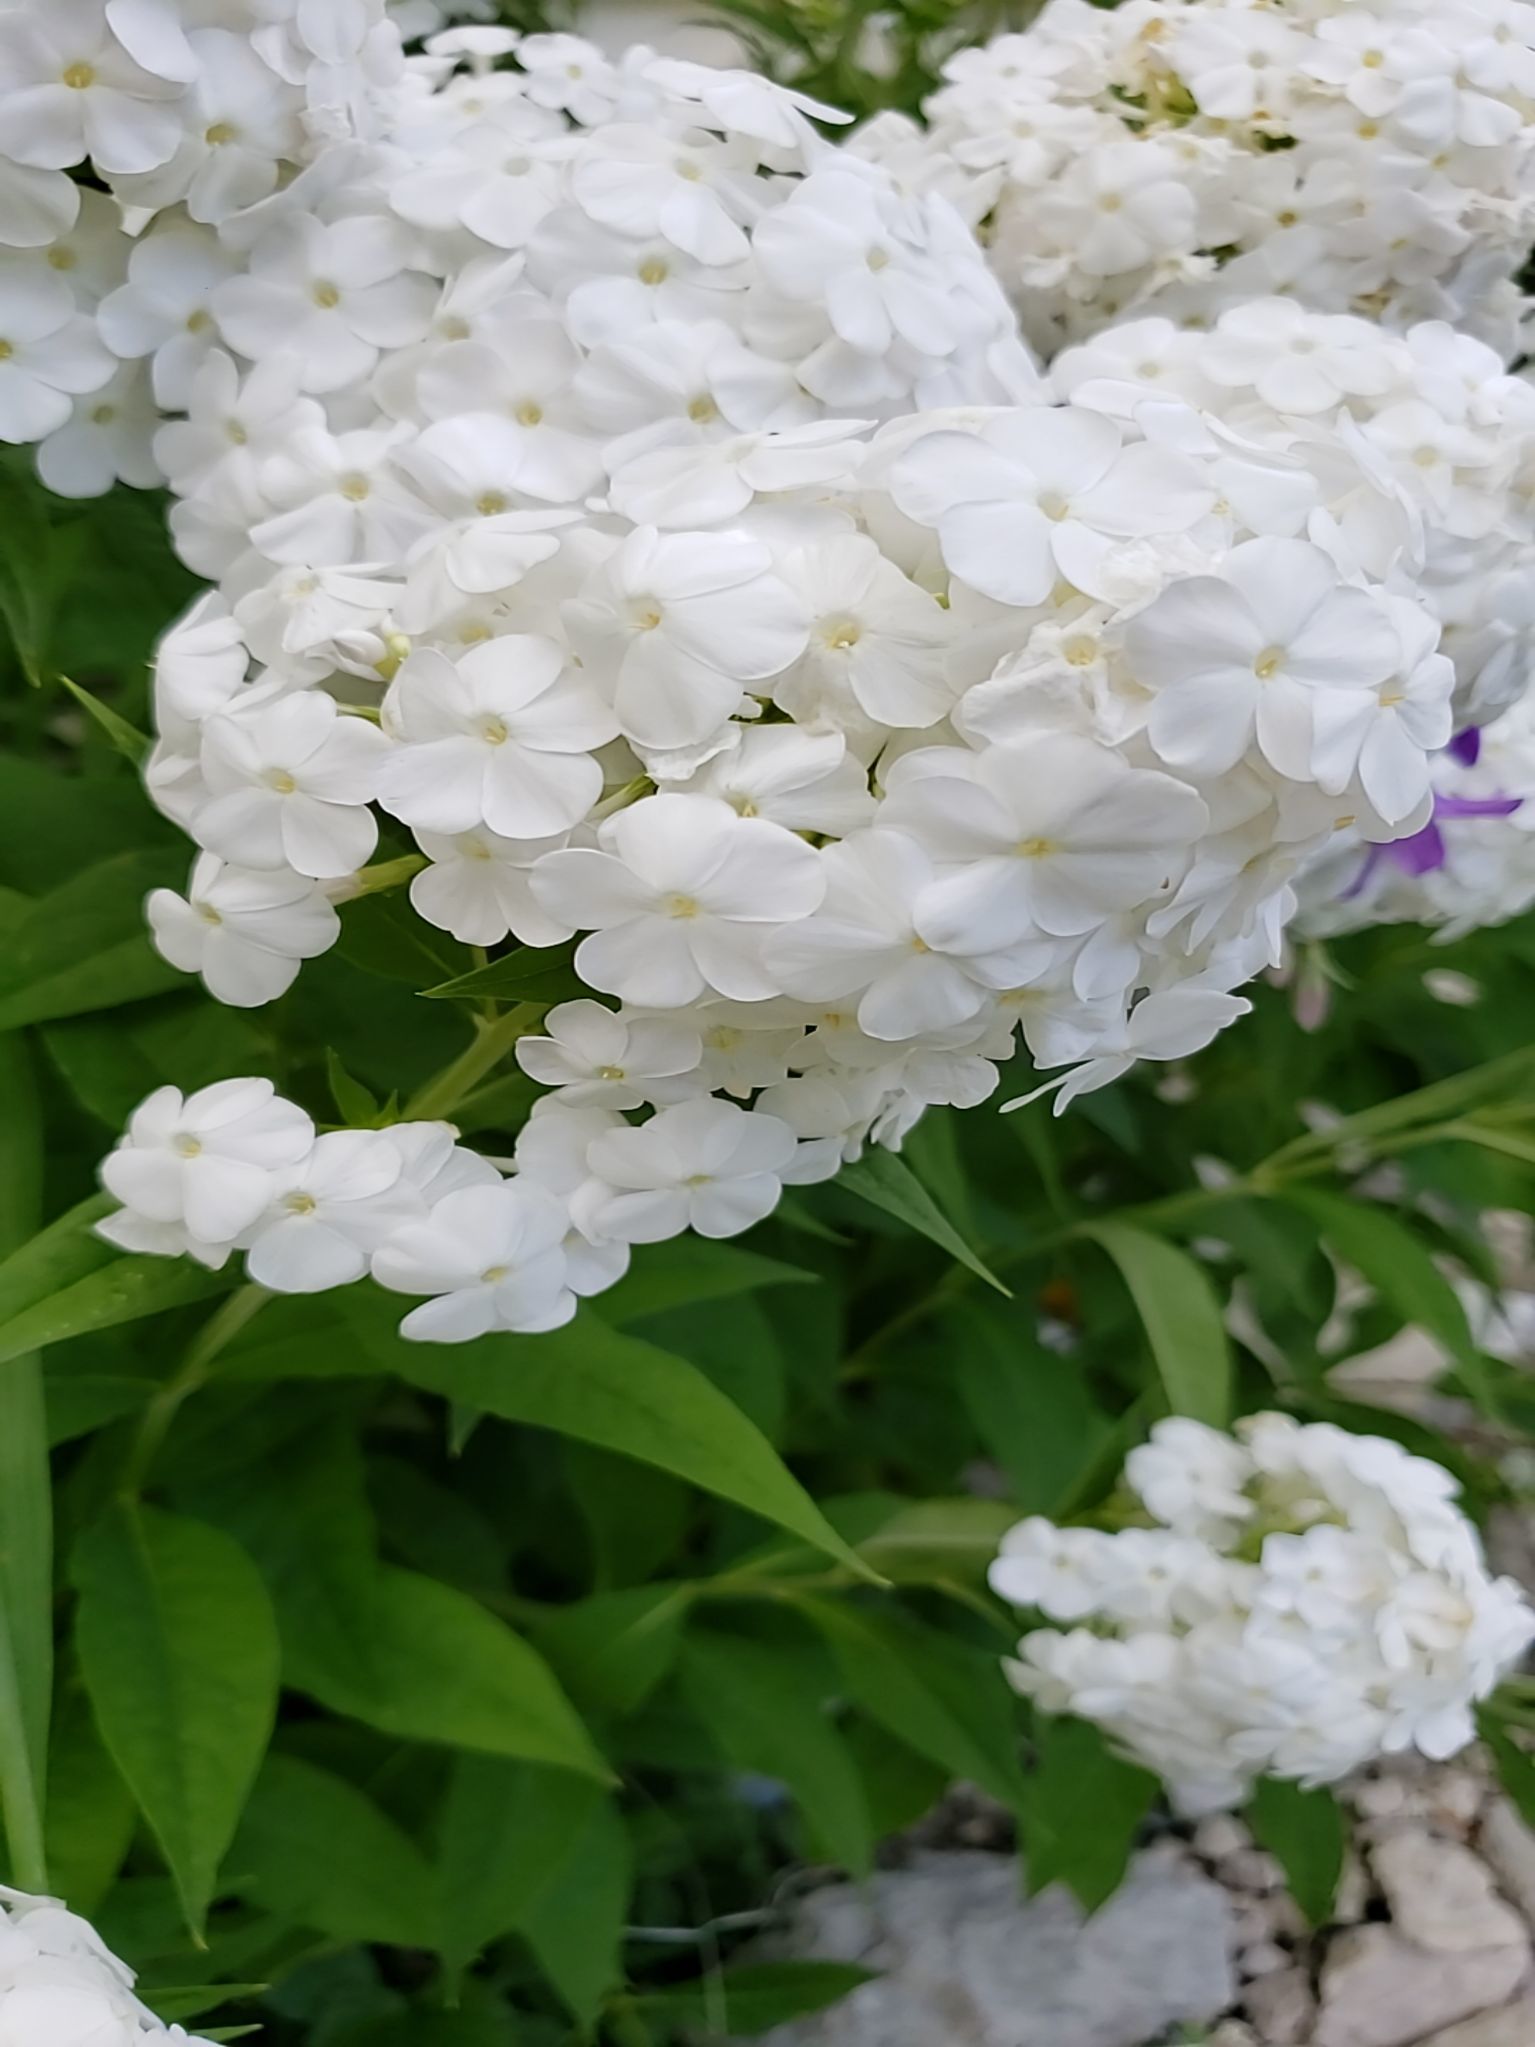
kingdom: Plantae
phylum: Tracheophyta
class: Magnoliopsida
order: Ericales
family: Polemoniaceae
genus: Phlox
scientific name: Phlox paniculata
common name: Fall phlox
